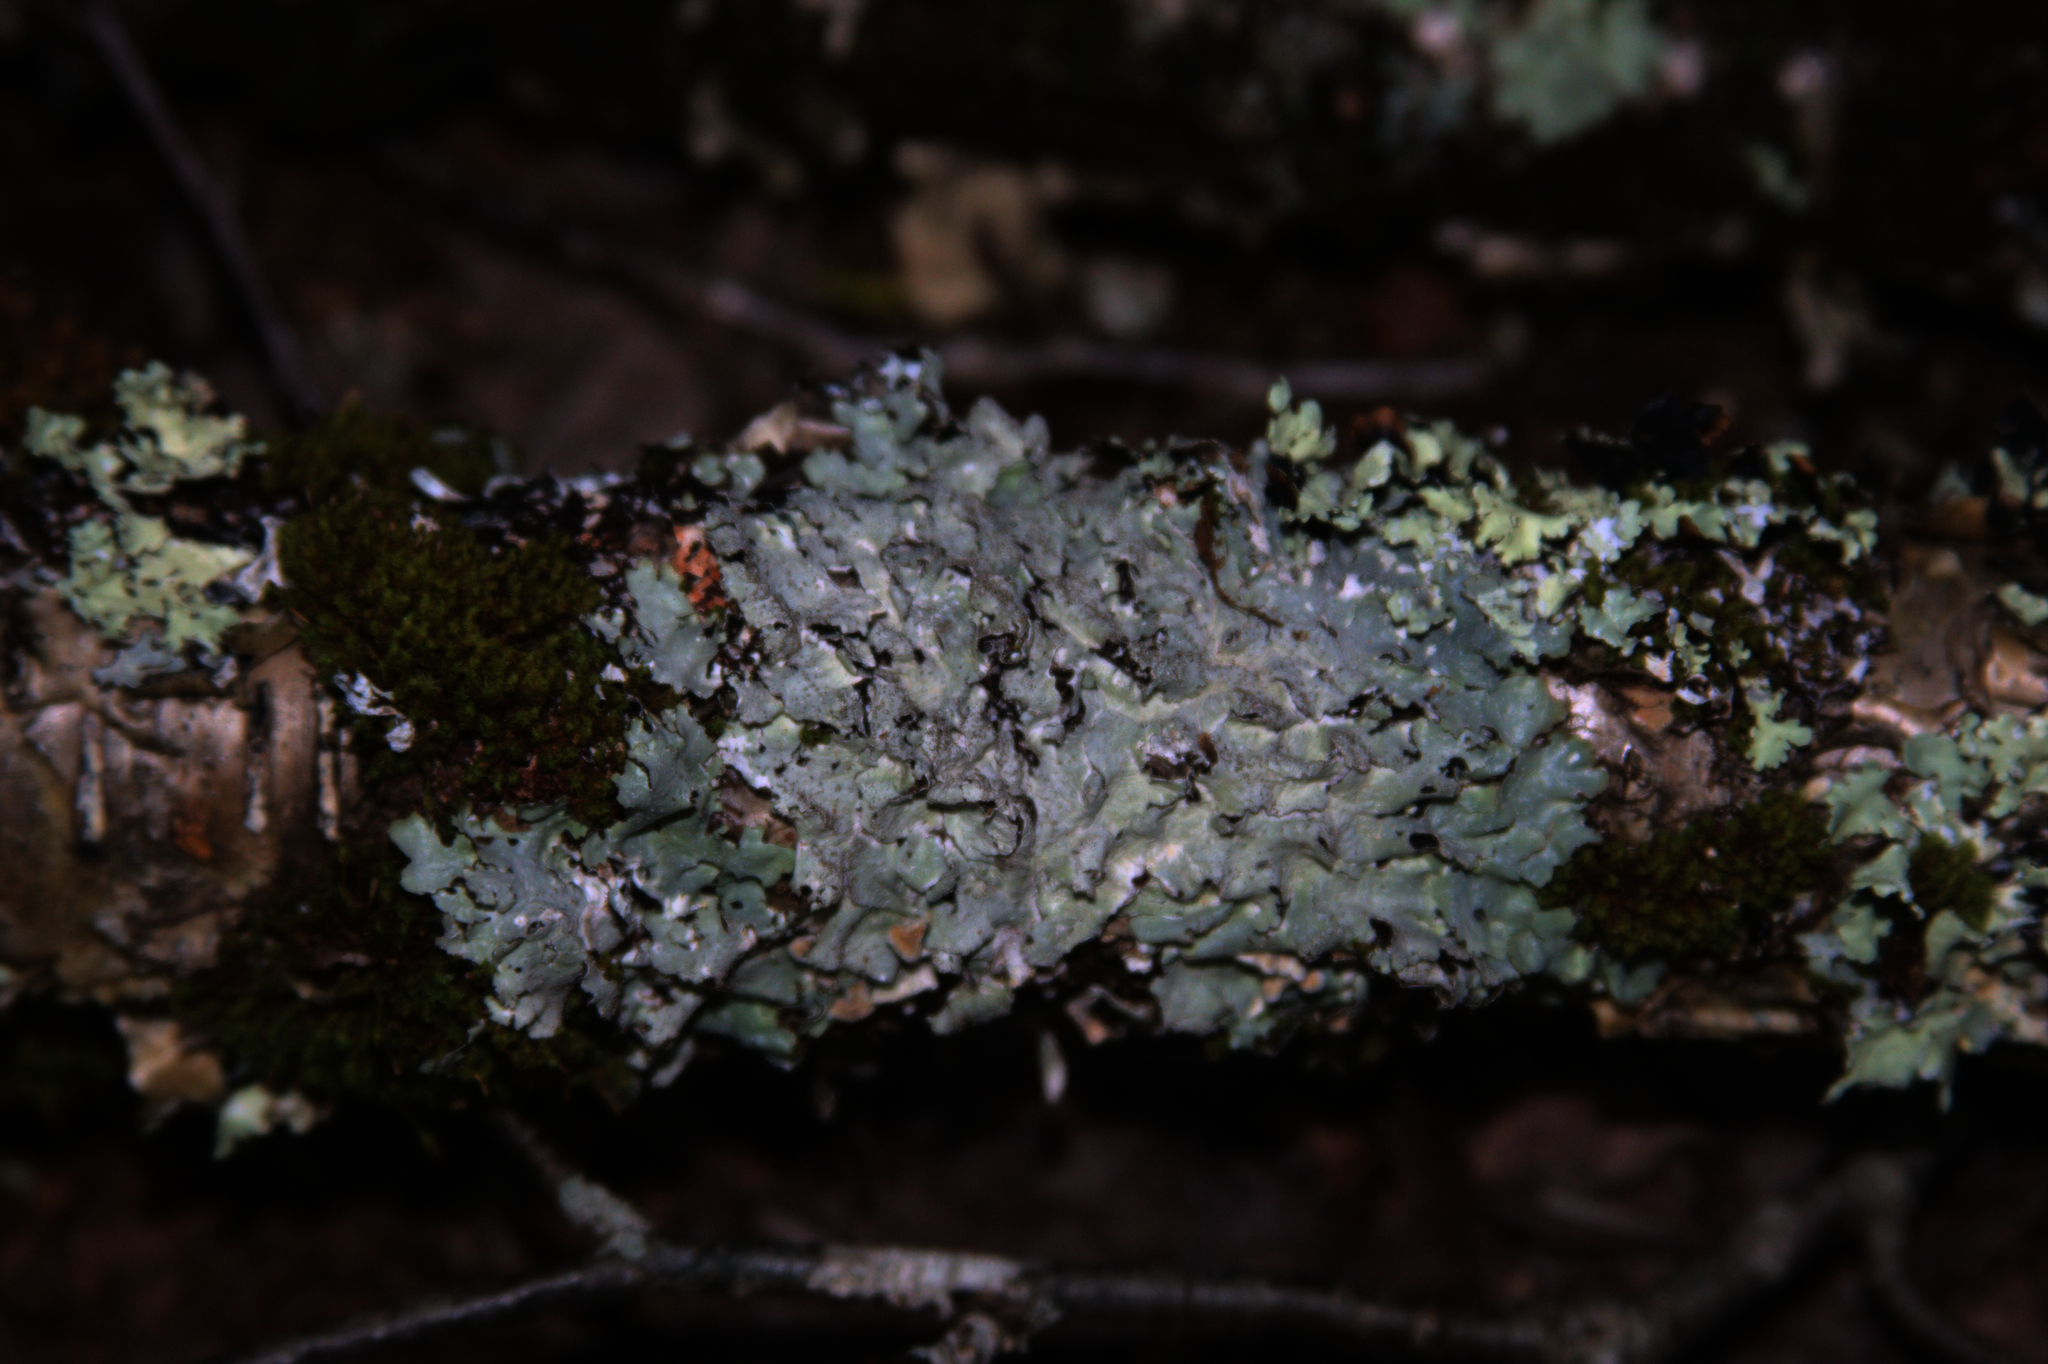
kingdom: Plantae
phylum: Bryophyta
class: Bryopsida
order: Orthotrichales
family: Orthotrichaceae
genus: Ulota
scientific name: Ulota crispa
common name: Crisped pincushion moss
